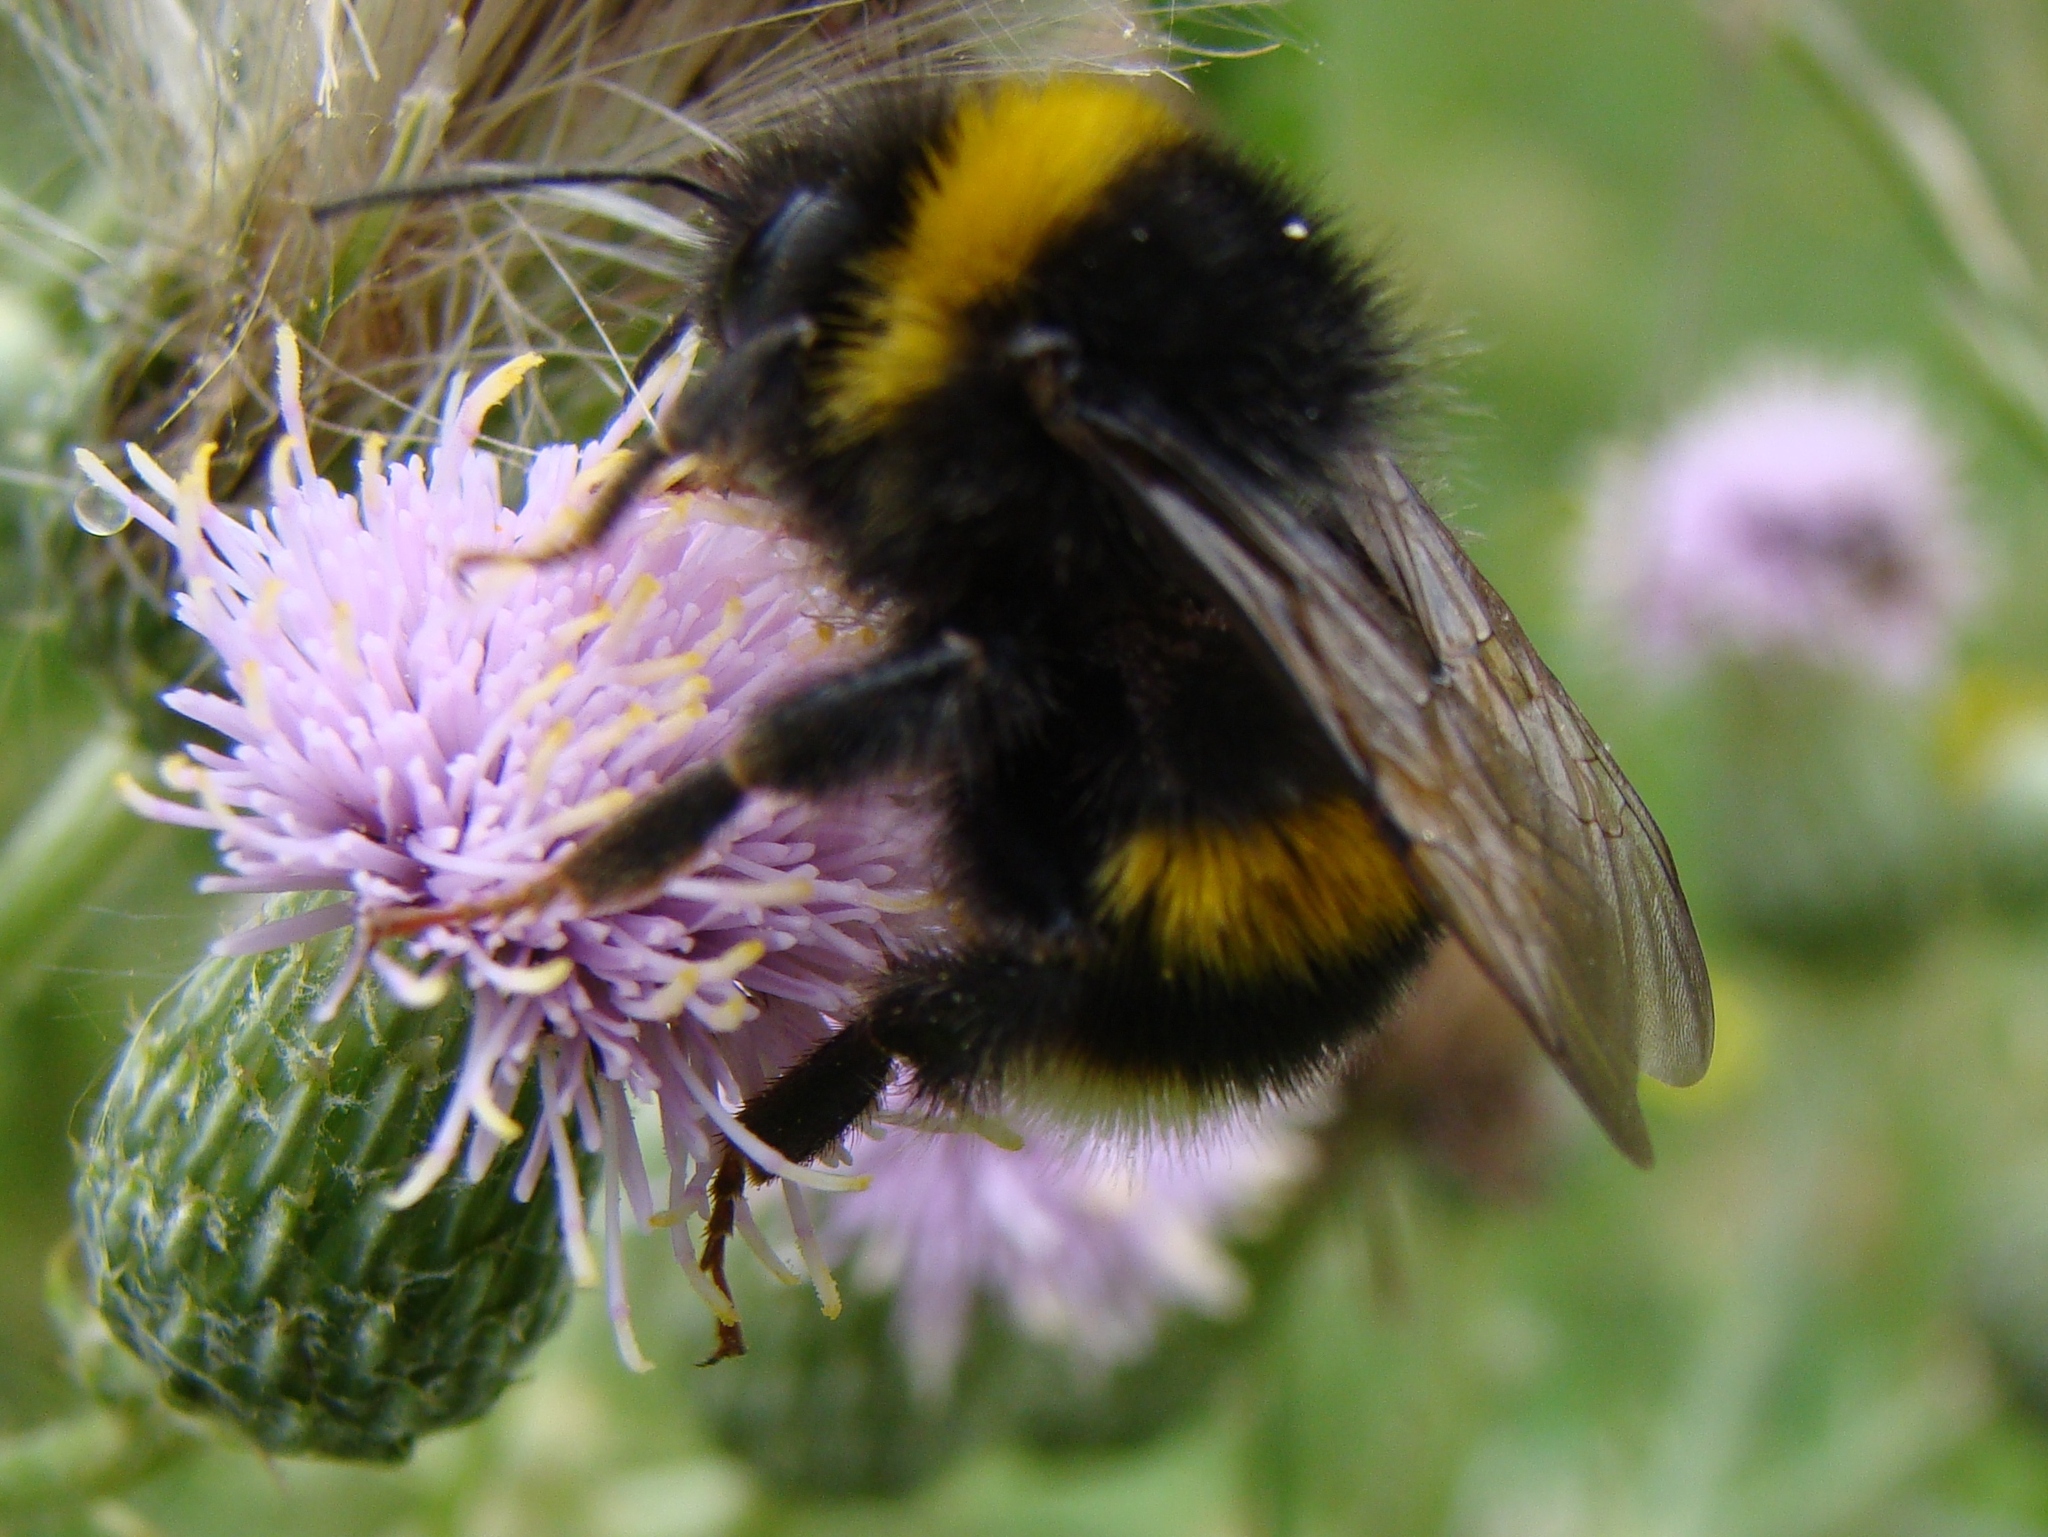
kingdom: Animalia
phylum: Arthropoda
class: Insecta
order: Hymenoptera
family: Apidae
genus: Bombus
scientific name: Bombus terrestris
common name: Buff-tailed bumblebee
